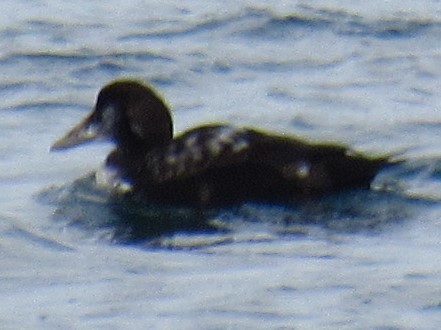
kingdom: Animalia
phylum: Chordata
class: Aves
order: Anseriformes
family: Anatidae
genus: Somateria
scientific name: Somateria mollissima
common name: Common eider
